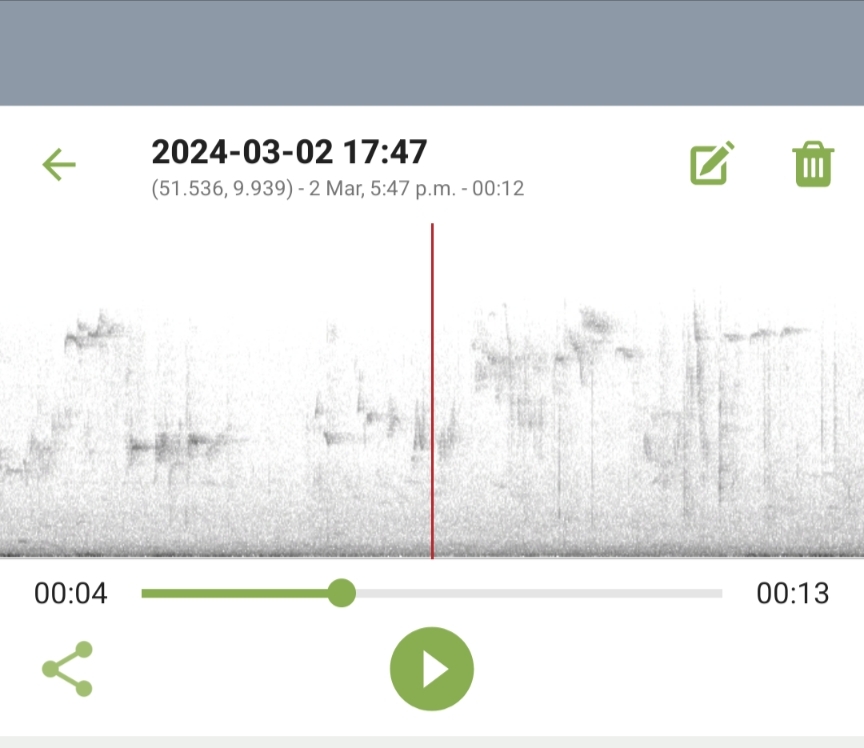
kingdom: Animalia
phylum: Chordata
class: Aves
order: Passeriformes
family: Muscicapidae
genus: Erithacus
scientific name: Erithacus rubecula
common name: European robin
